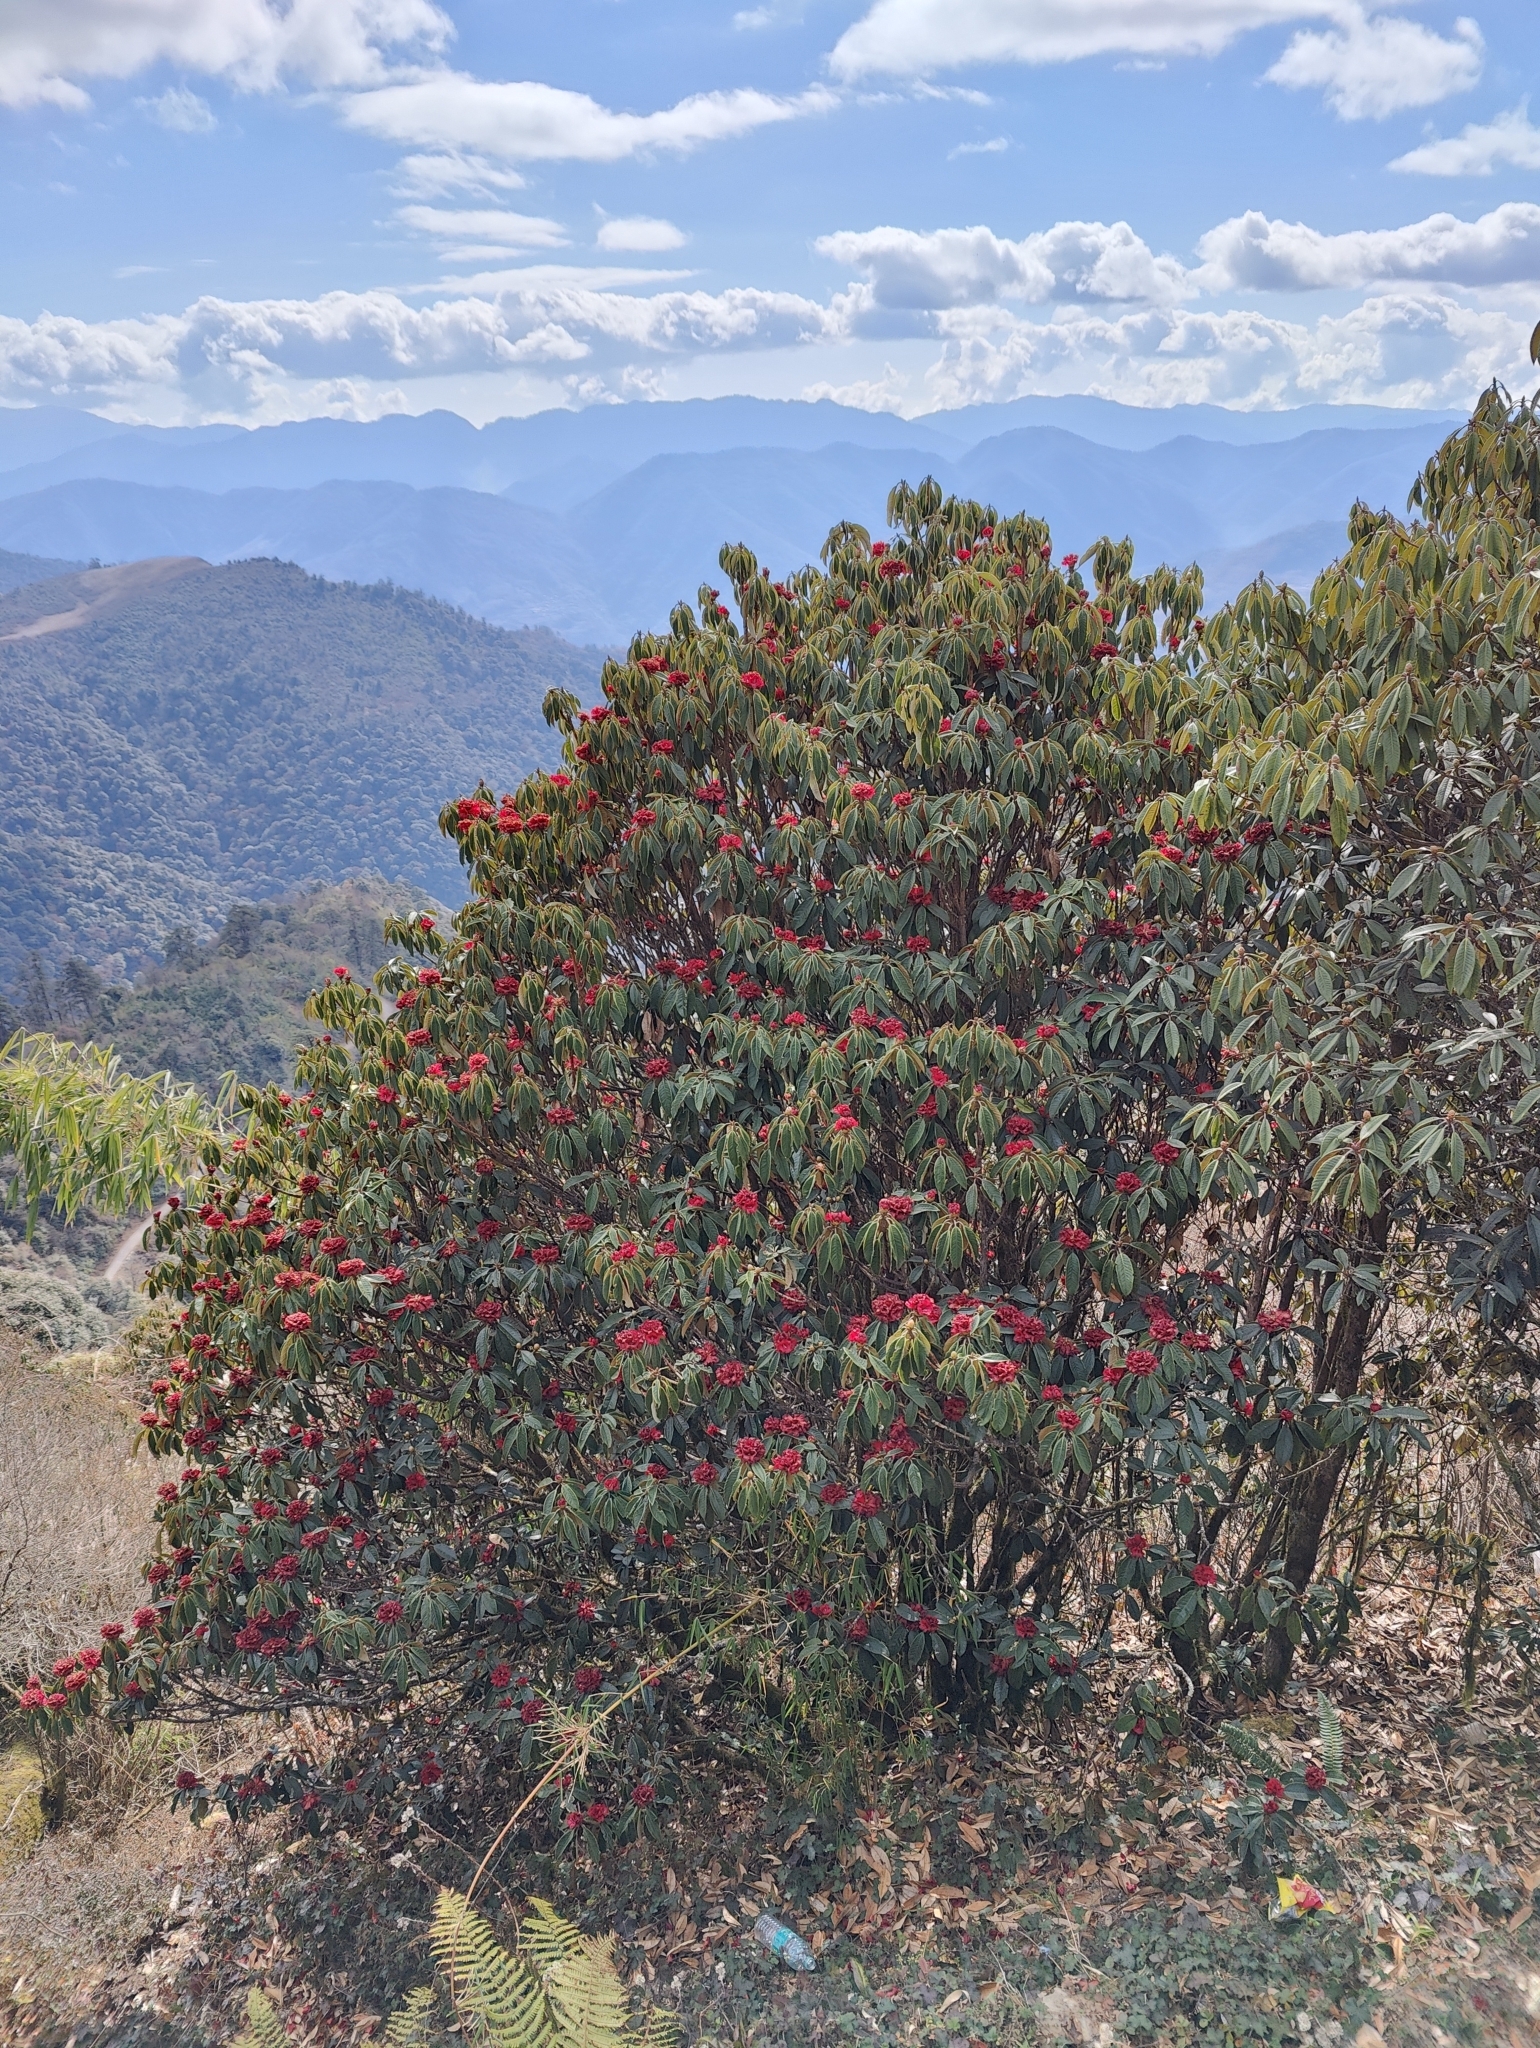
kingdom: Plantae
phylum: Tracheophyta
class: Magnoliopsida
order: Ericales
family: Ericaceae
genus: Rhododendron
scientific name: Rhododendron arboreum
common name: Tree rhododendron
